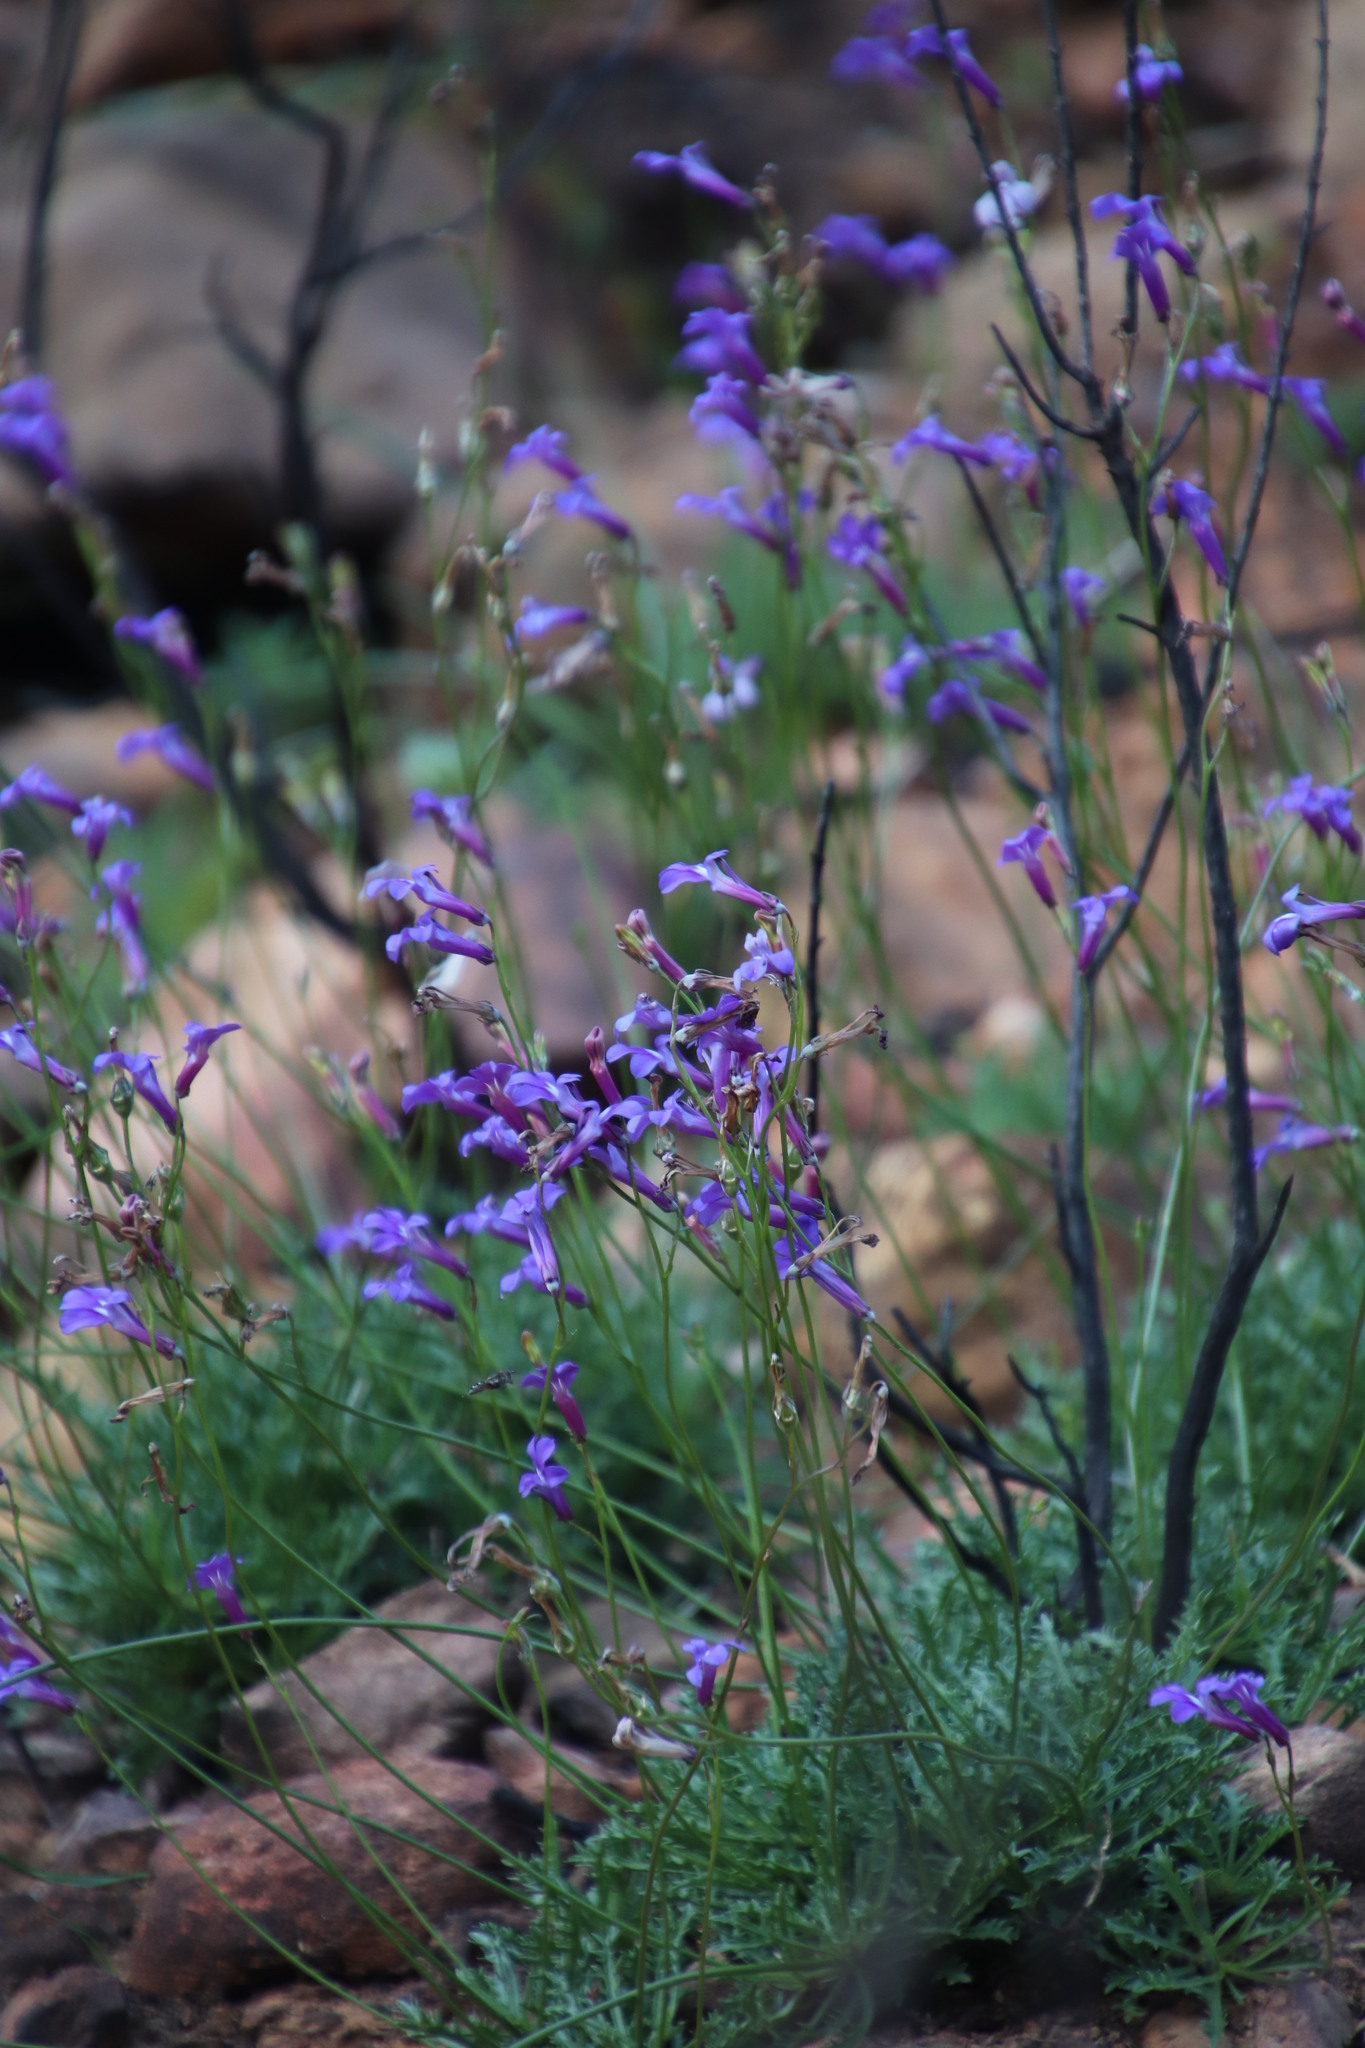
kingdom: Plantae
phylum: Tracheophyta
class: Magnoliopsida
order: Asterales
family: Campanulaceae
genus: Lobelia
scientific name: Lobelia coronopifolia
